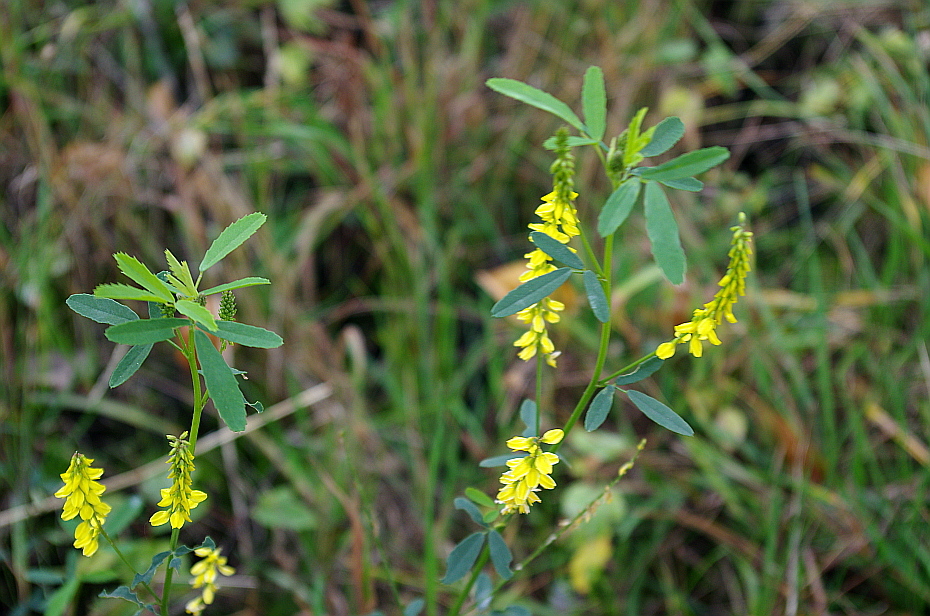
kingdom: Plantae
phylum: Tracheophyta
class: Magnoliopsida
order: Fabales
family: Fabaceae
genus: Melilotus
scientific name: Melilotus officinalis
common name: Sweetclover
